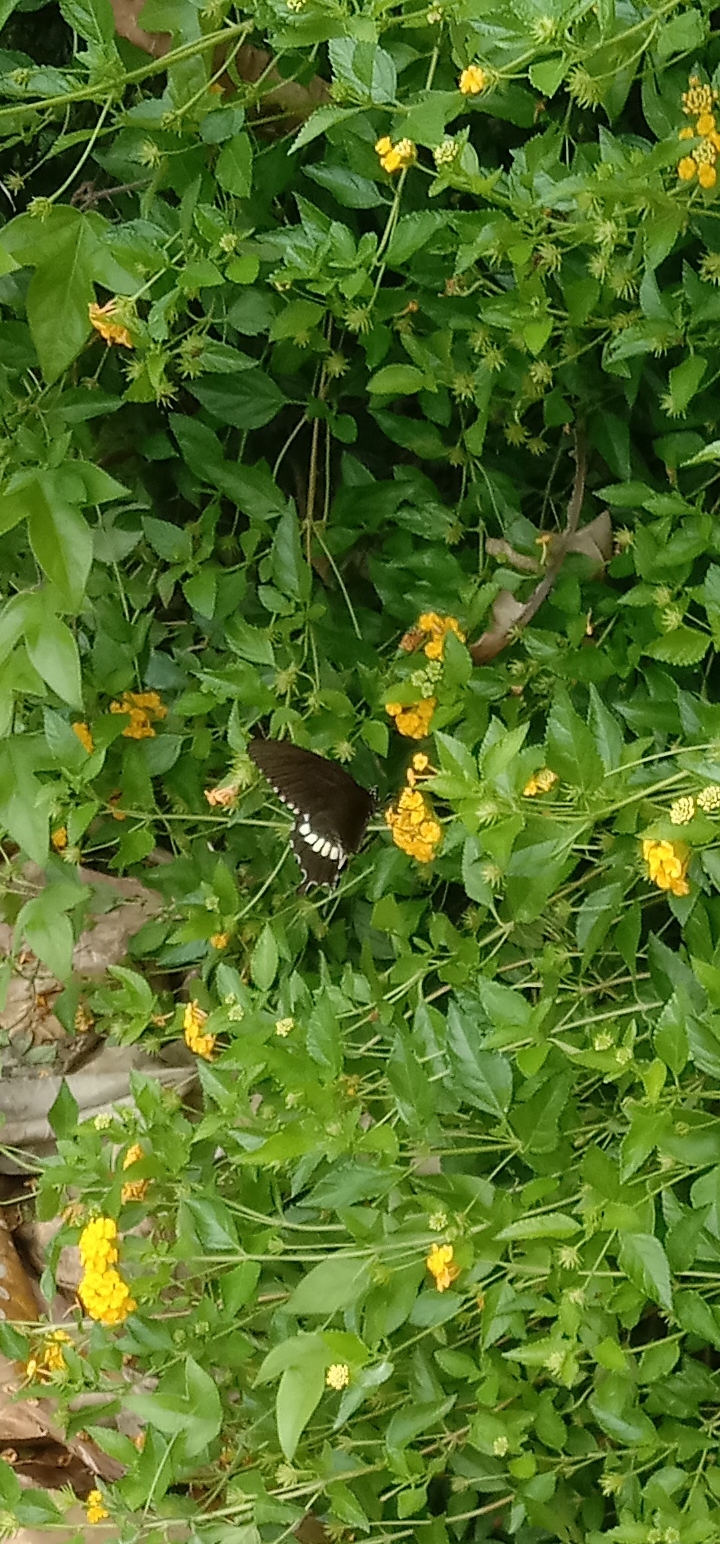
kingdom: Animalia
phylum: Arthropoda
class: Insecta
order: Lepidoptera
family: Papilionidae
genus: Papilio
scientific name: Papilio polytes
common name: Common mormon
